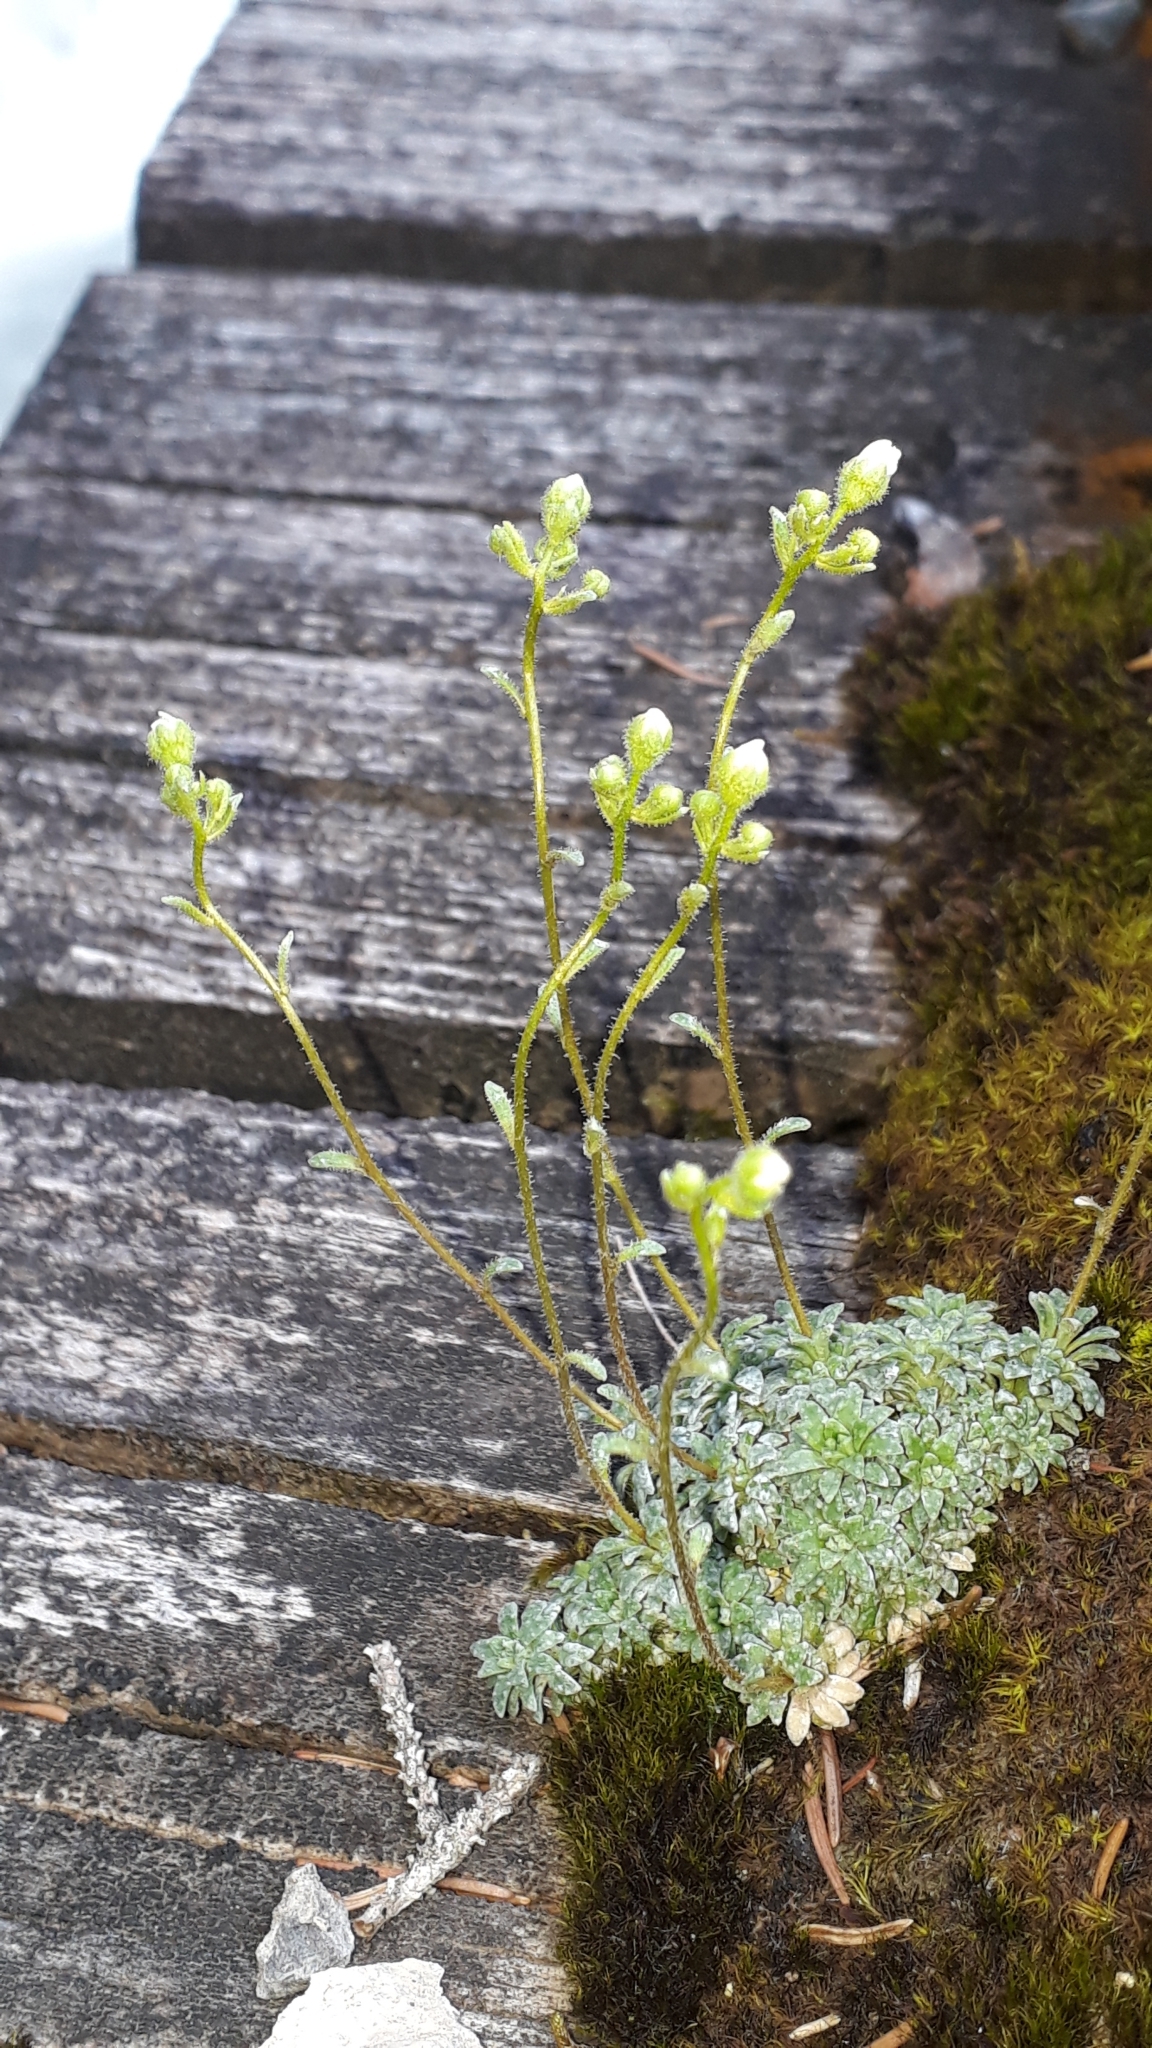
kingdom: Plantae
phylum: Tracheophyta
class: Magnoliopsida
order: Saxifragales
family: Saxifragaceae
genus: Saxifraga
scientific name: Saxifraga caesia
